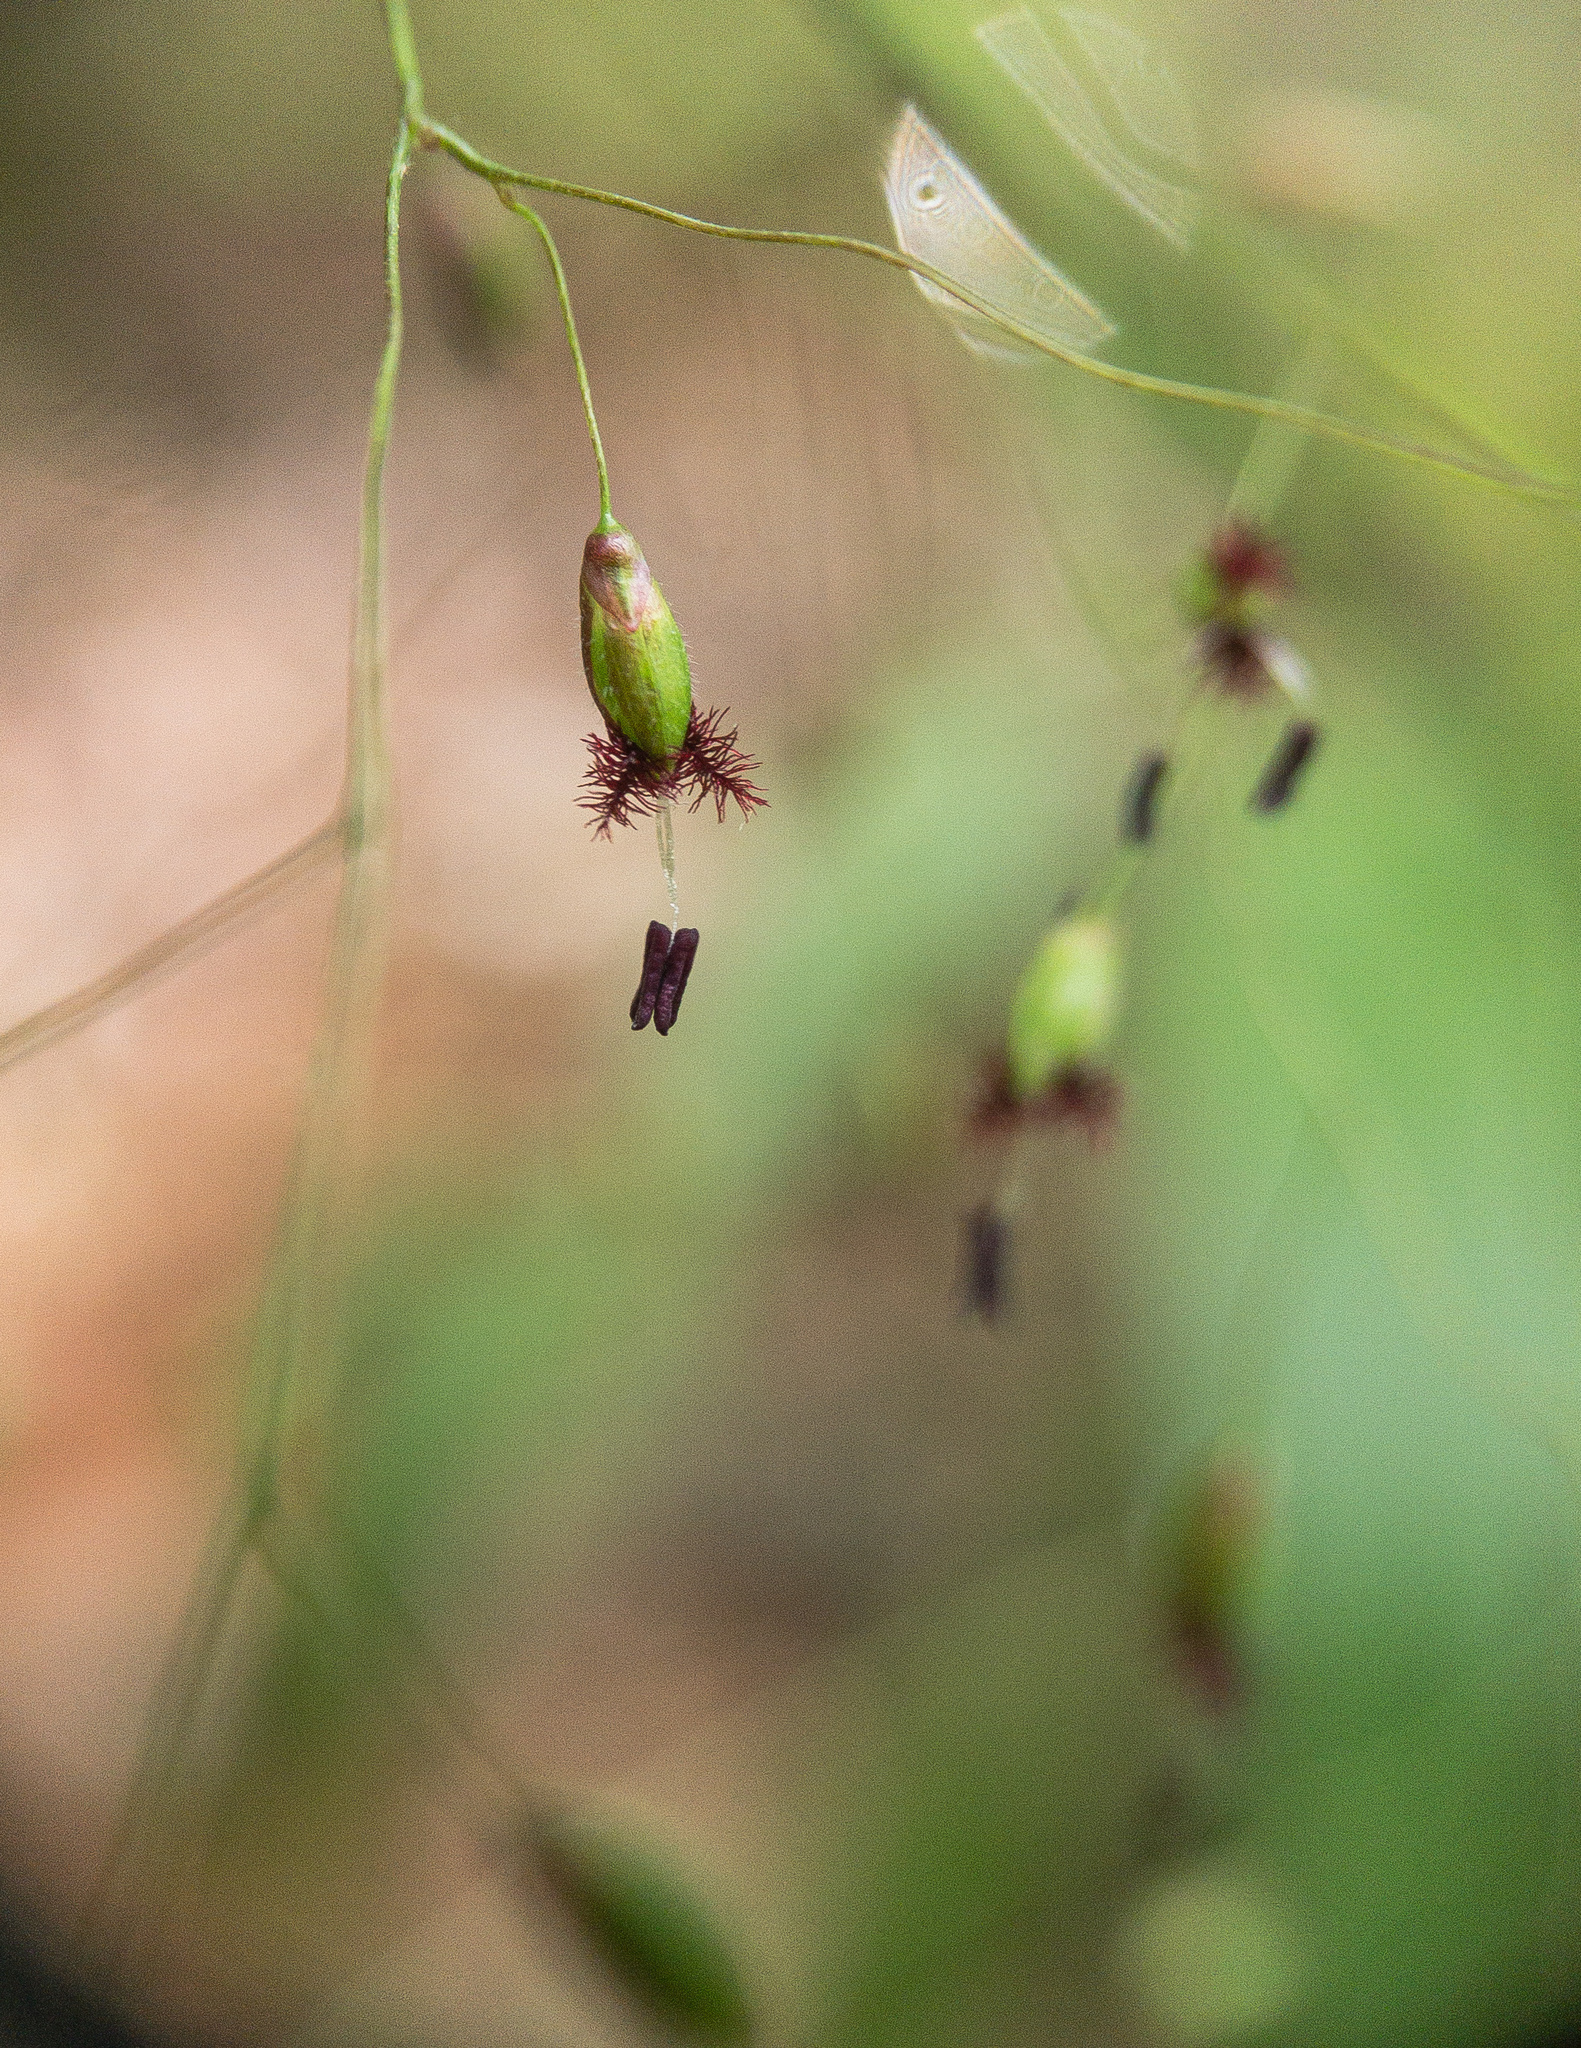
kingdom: Plantae
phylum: Tracheophyta
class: Liliopsida
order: Poales
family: Poaceae
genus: Dichanthelium
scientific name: Dichanthelium commutatum
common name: Variable witchgrass
